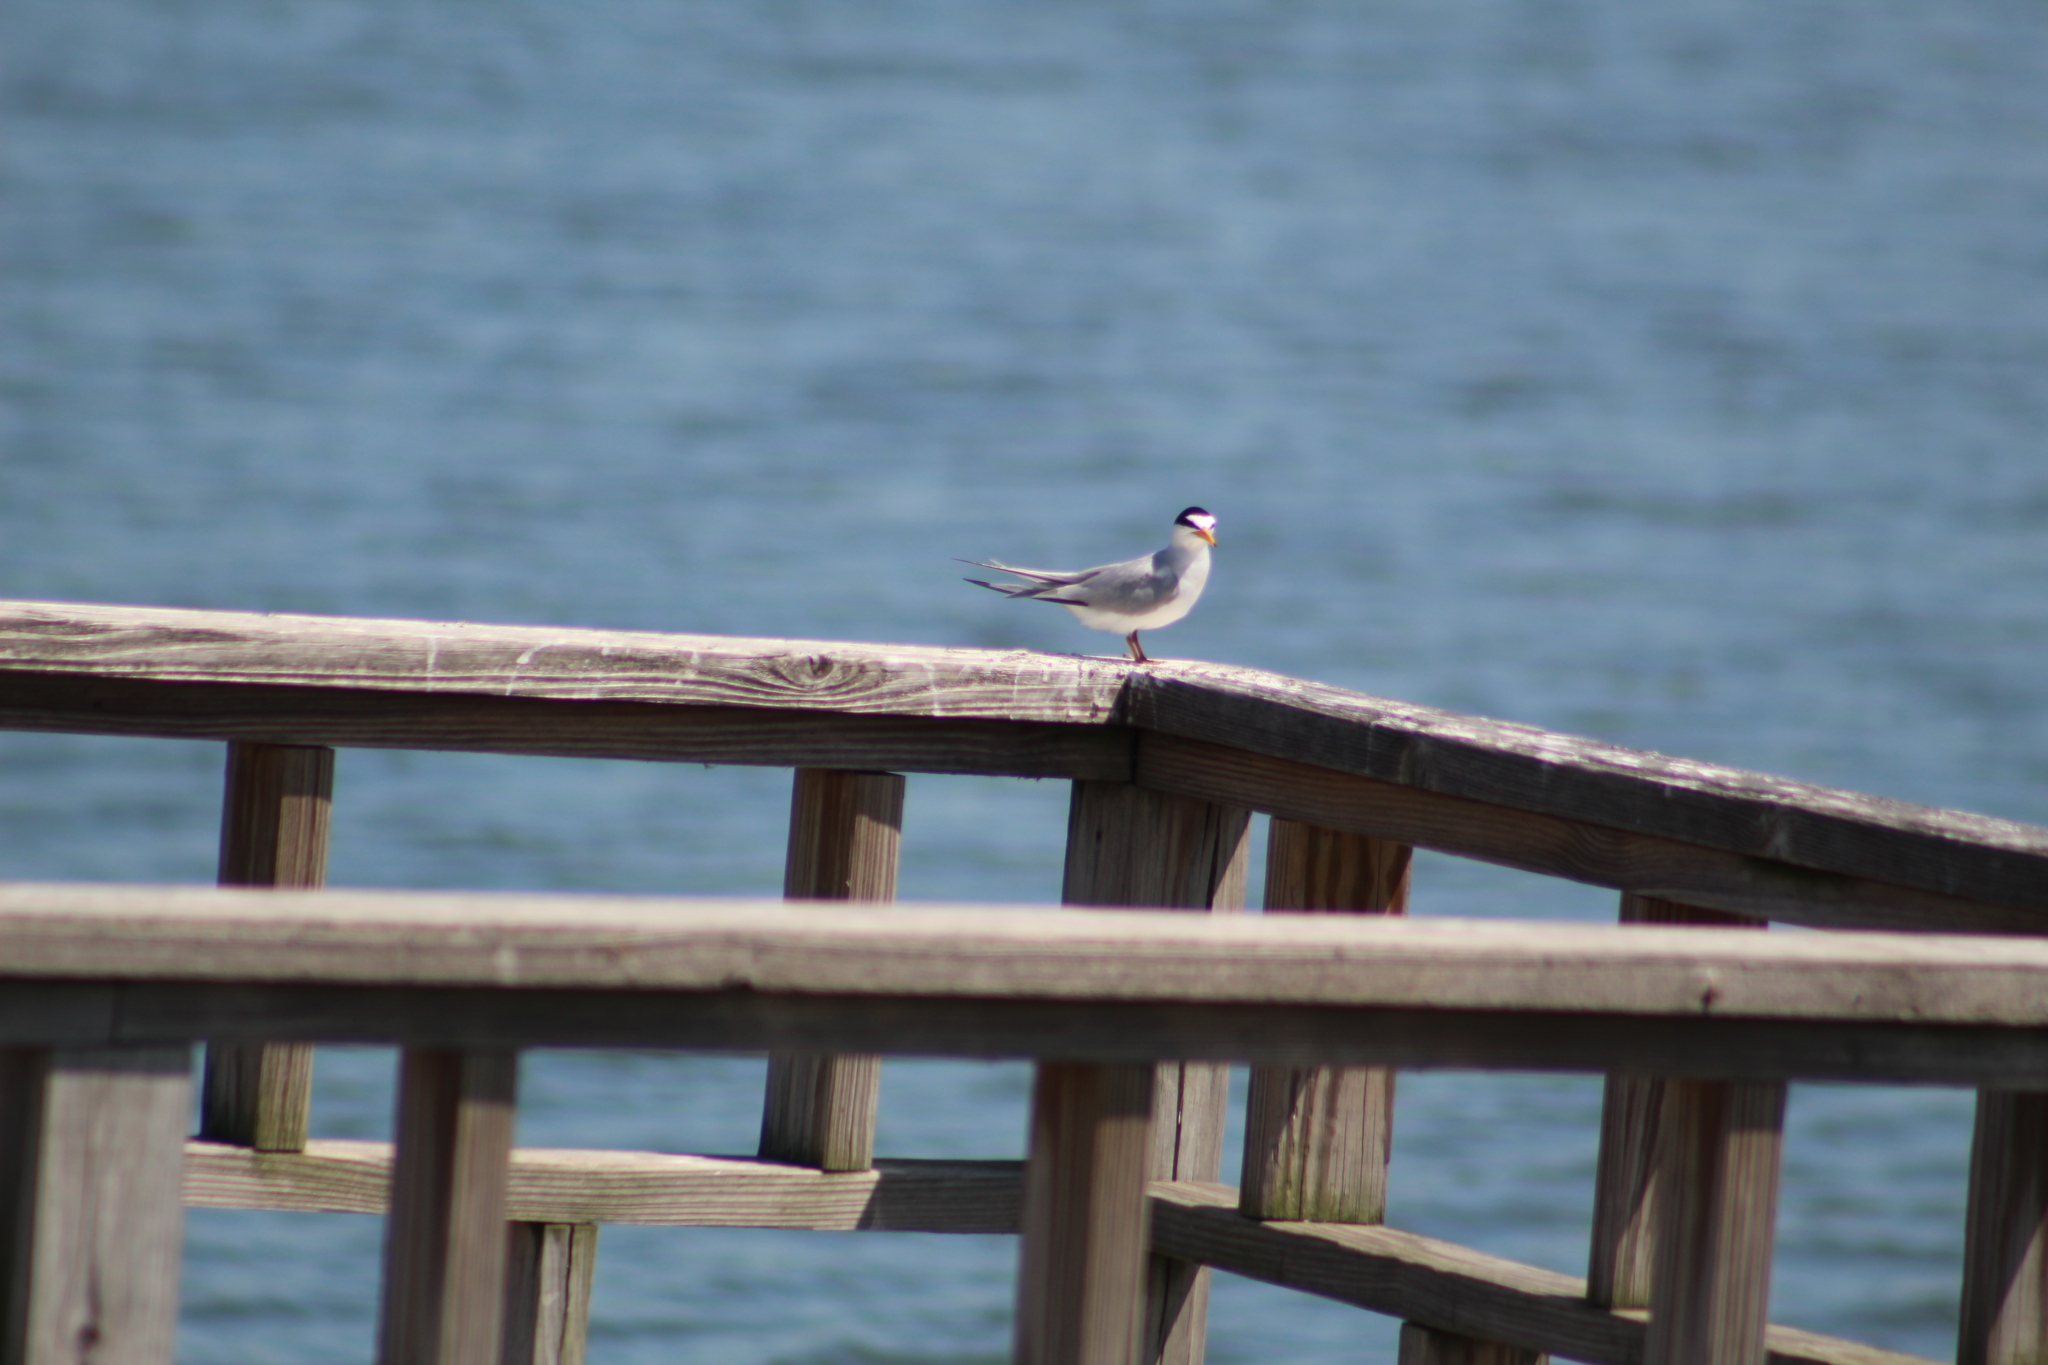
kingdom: Animalia
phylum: Chordata
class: Aves
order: Charadriiformes
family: Laridae
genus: Sternula
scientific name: Sternula antillarum
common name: Least tern
